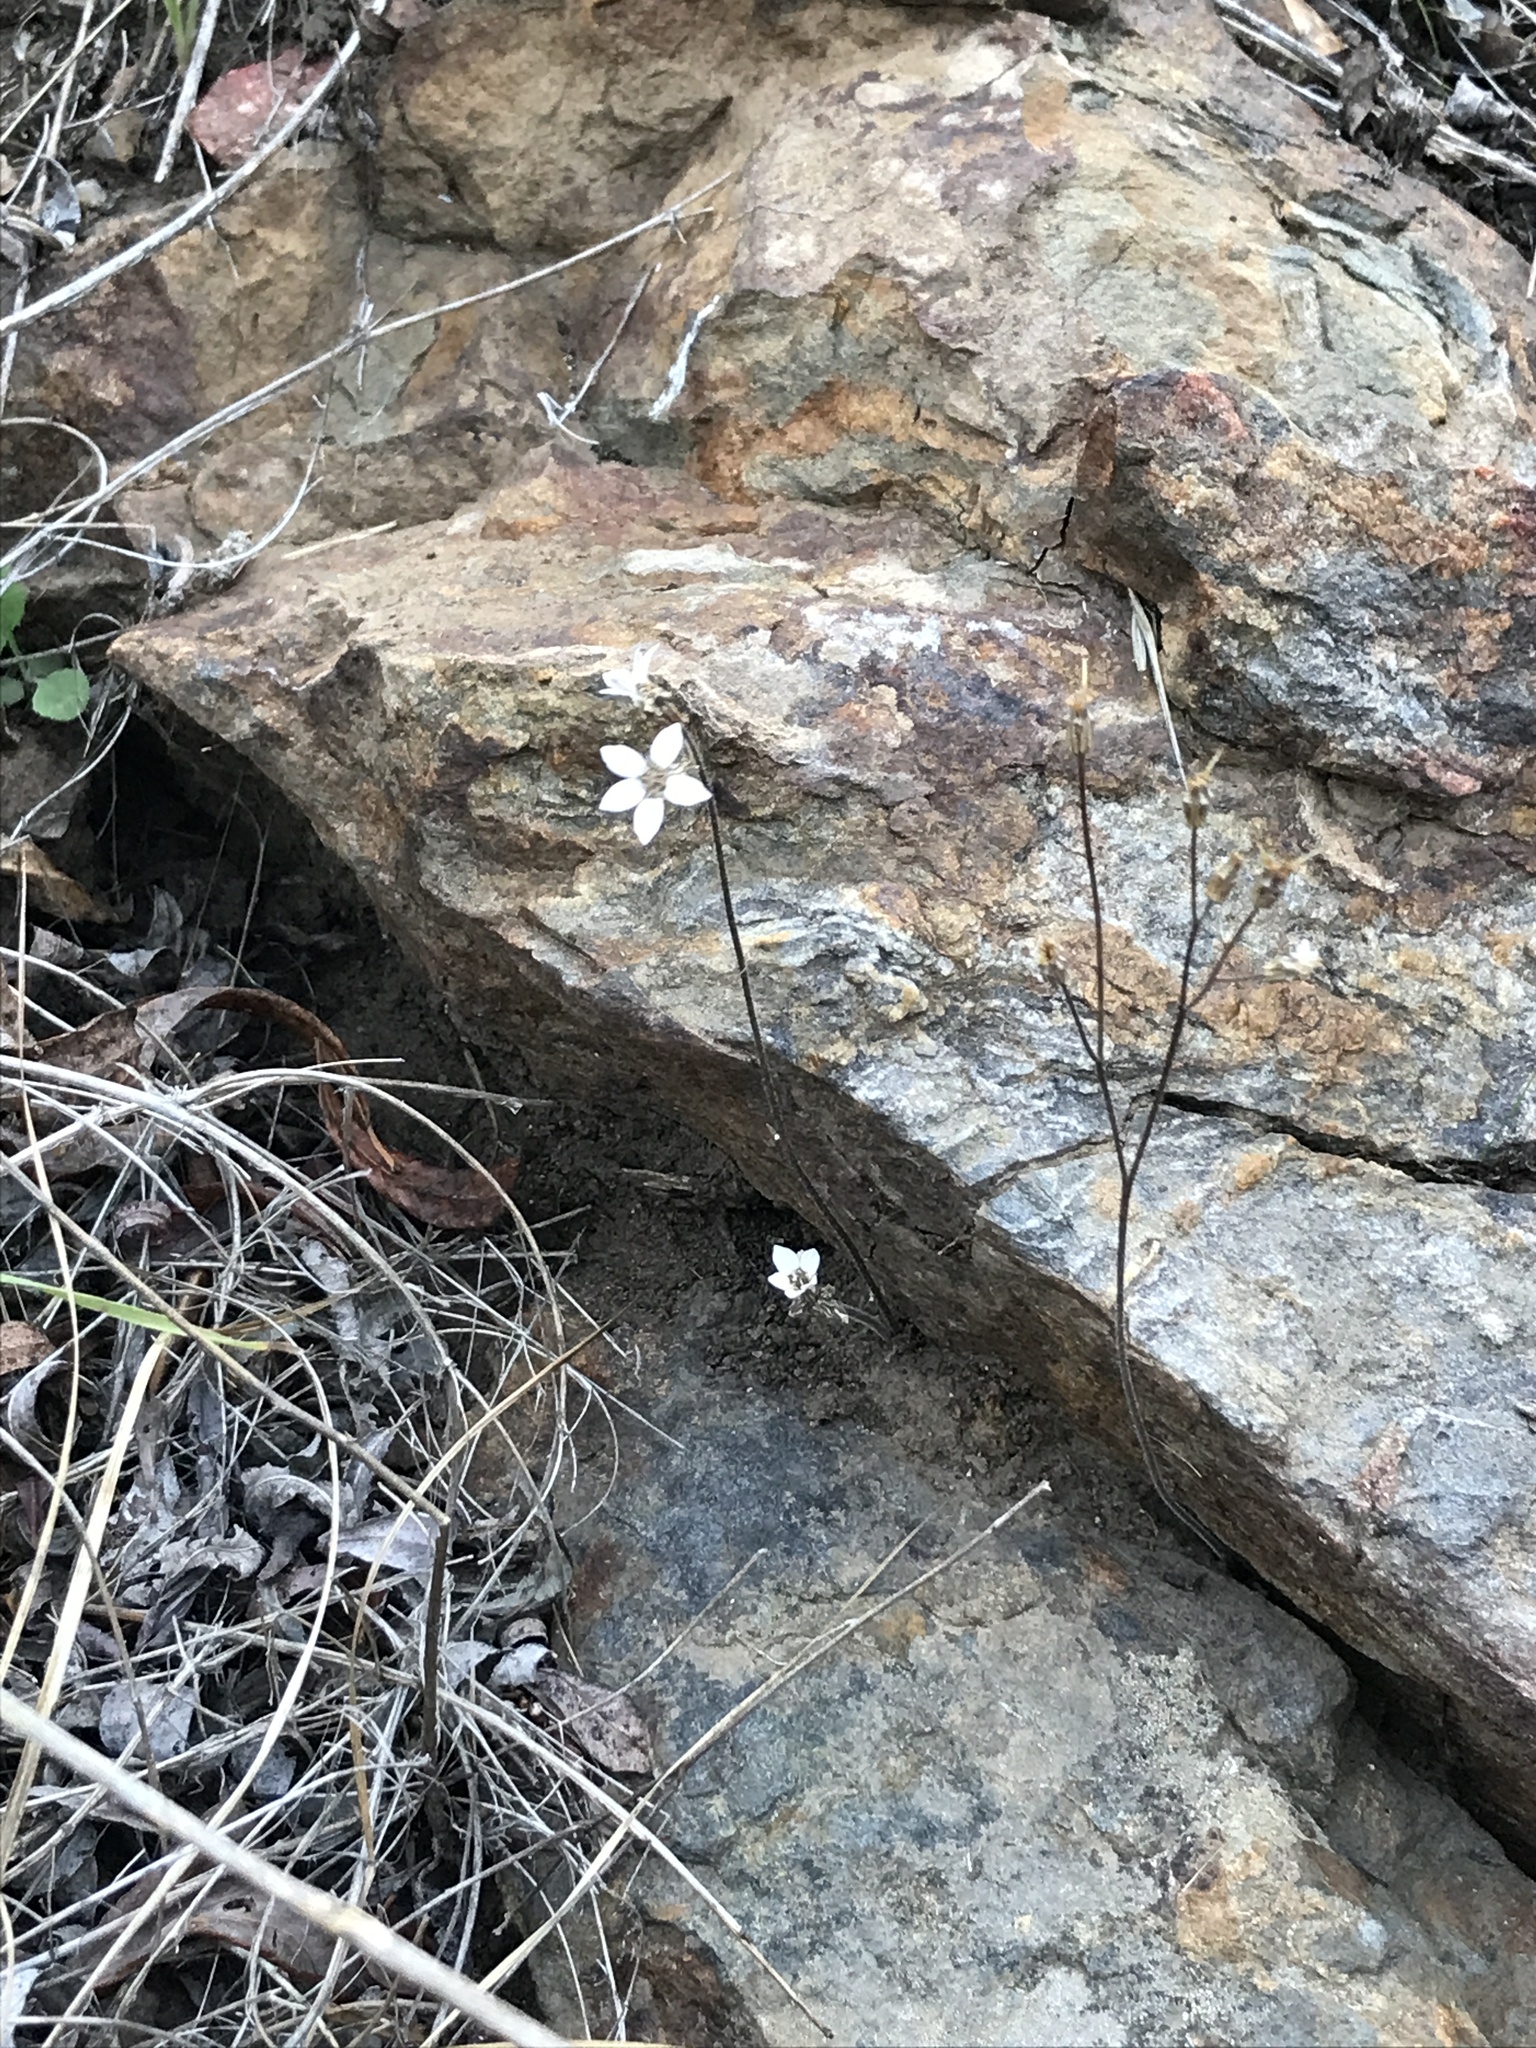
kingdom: Plantae
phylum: Tracheophyta
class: Magnoliopsida
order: Saxifragales
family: Saxifragaceae
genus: Jepsonia
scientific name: Jepsonia parryi
